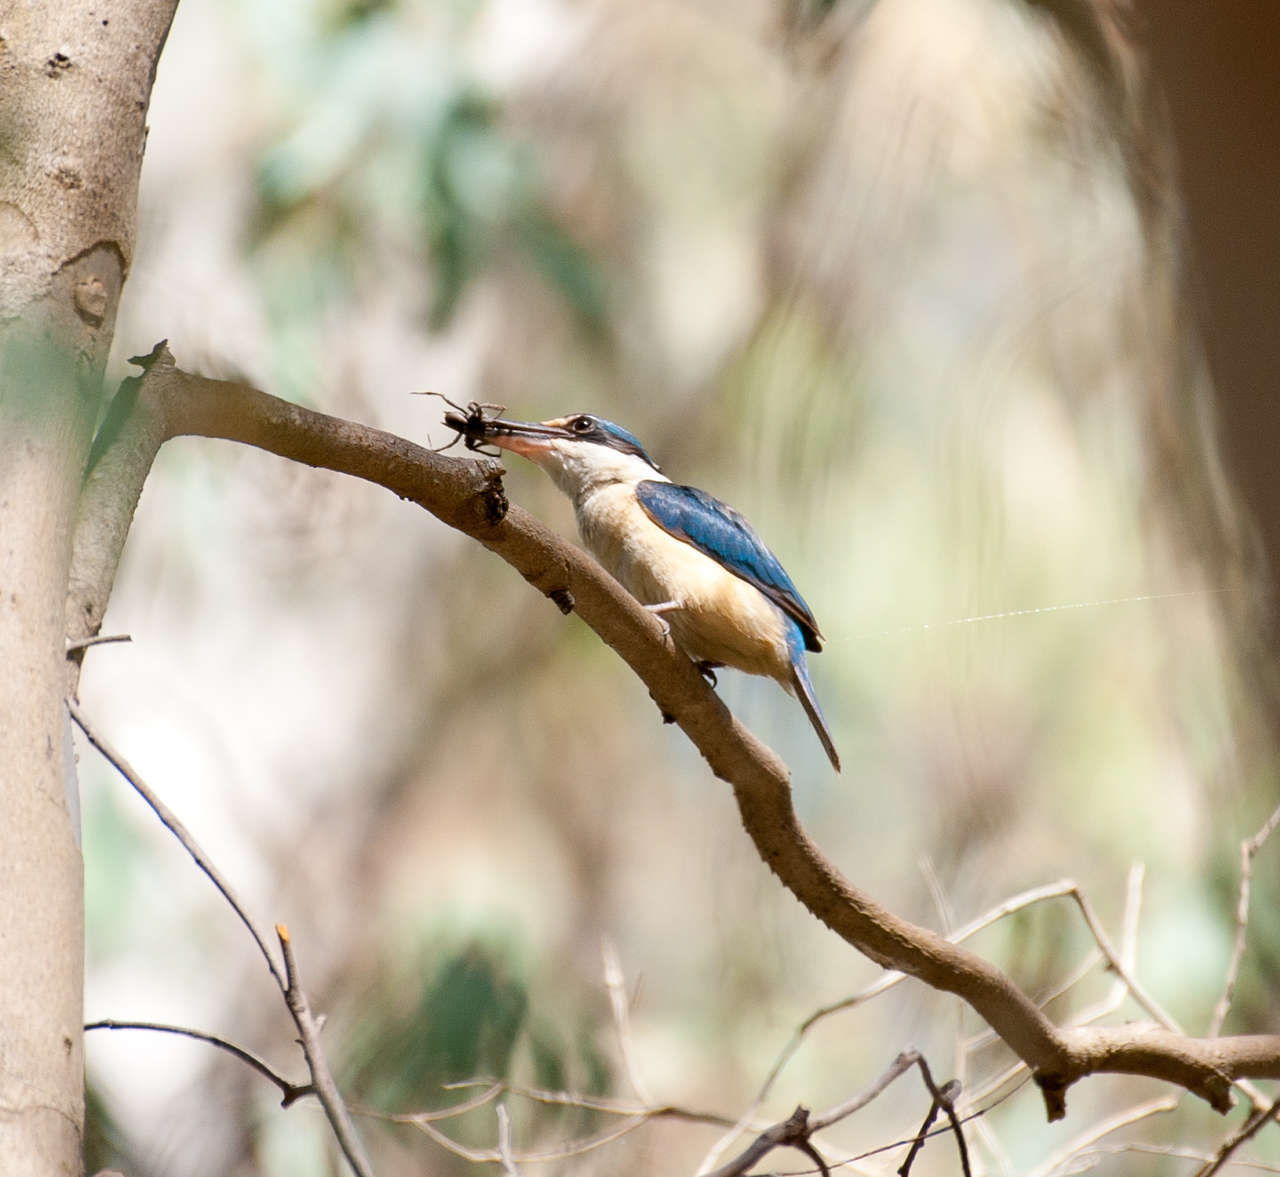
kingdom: Animalia
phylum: Chordata
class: Aves
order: Coraciiformes
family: Alcedinidae
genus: Todiramphus
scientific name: Todiramphus sanctus
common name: Sacred kingfisher
